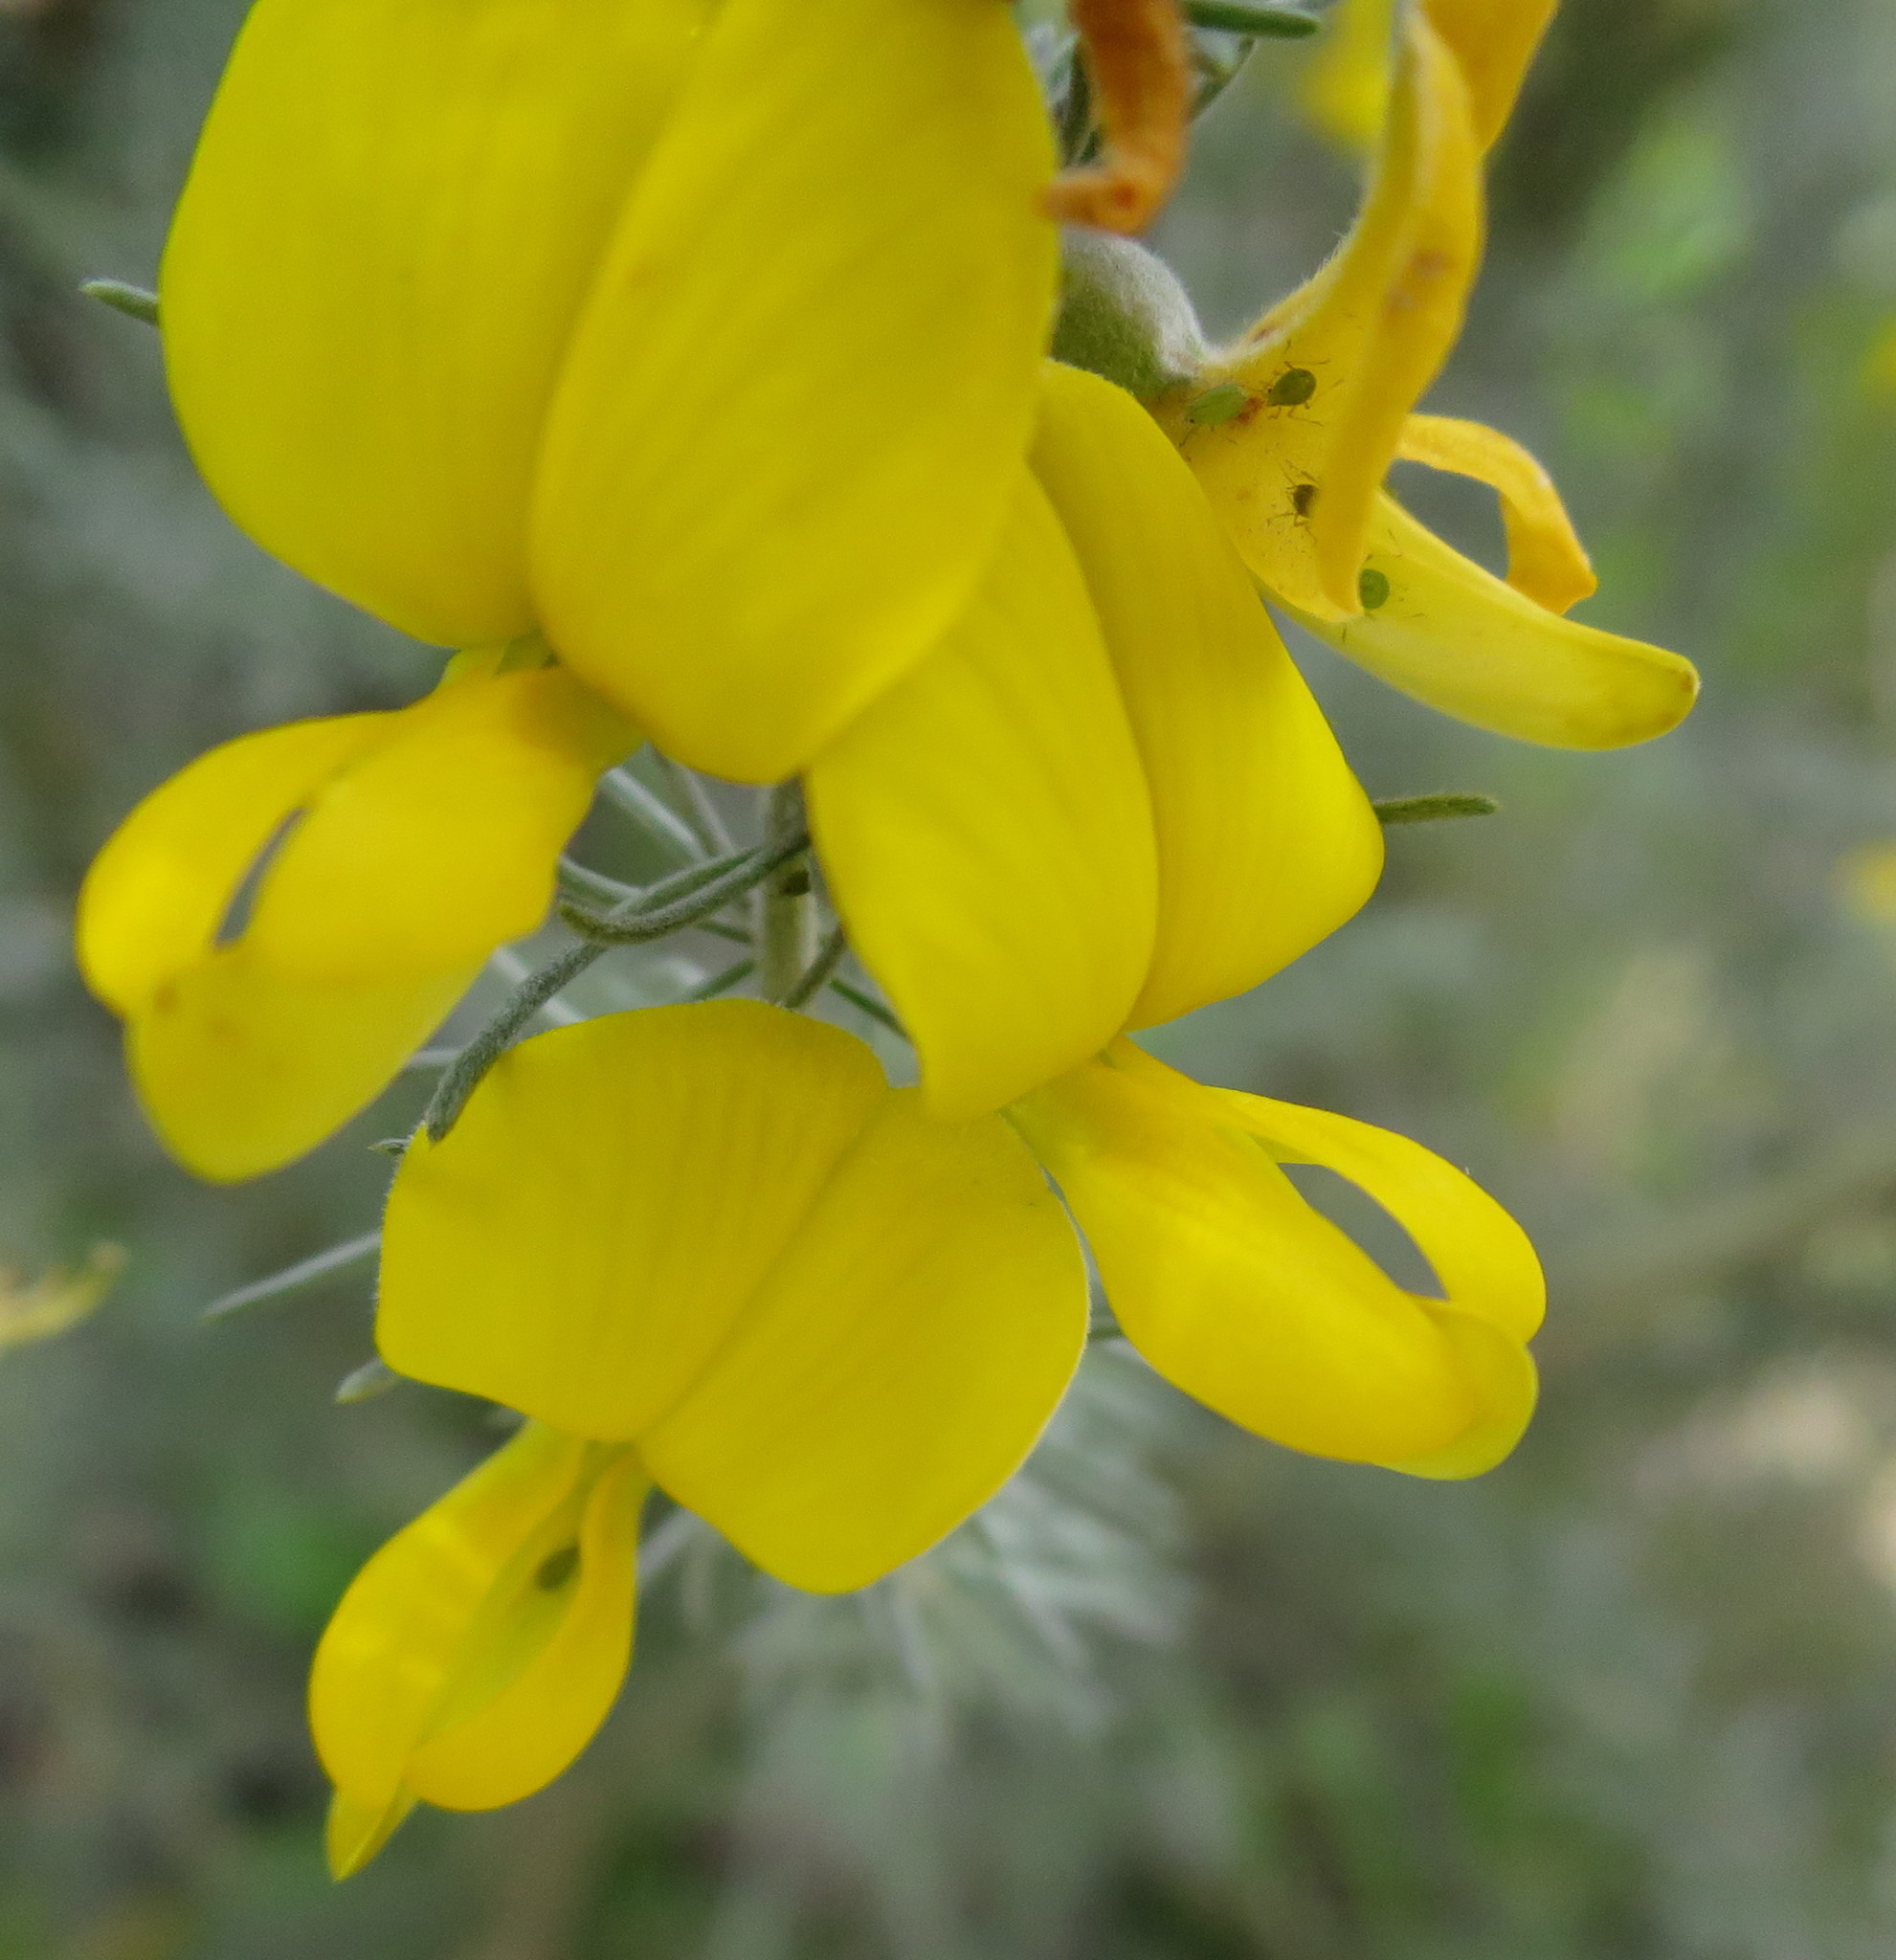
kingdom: Plantae
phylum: Tracheophyta
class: Magnoliopsida
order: Fabales
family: Fabaceae
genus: Aspalathus
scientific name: Aspalathus bowieana
